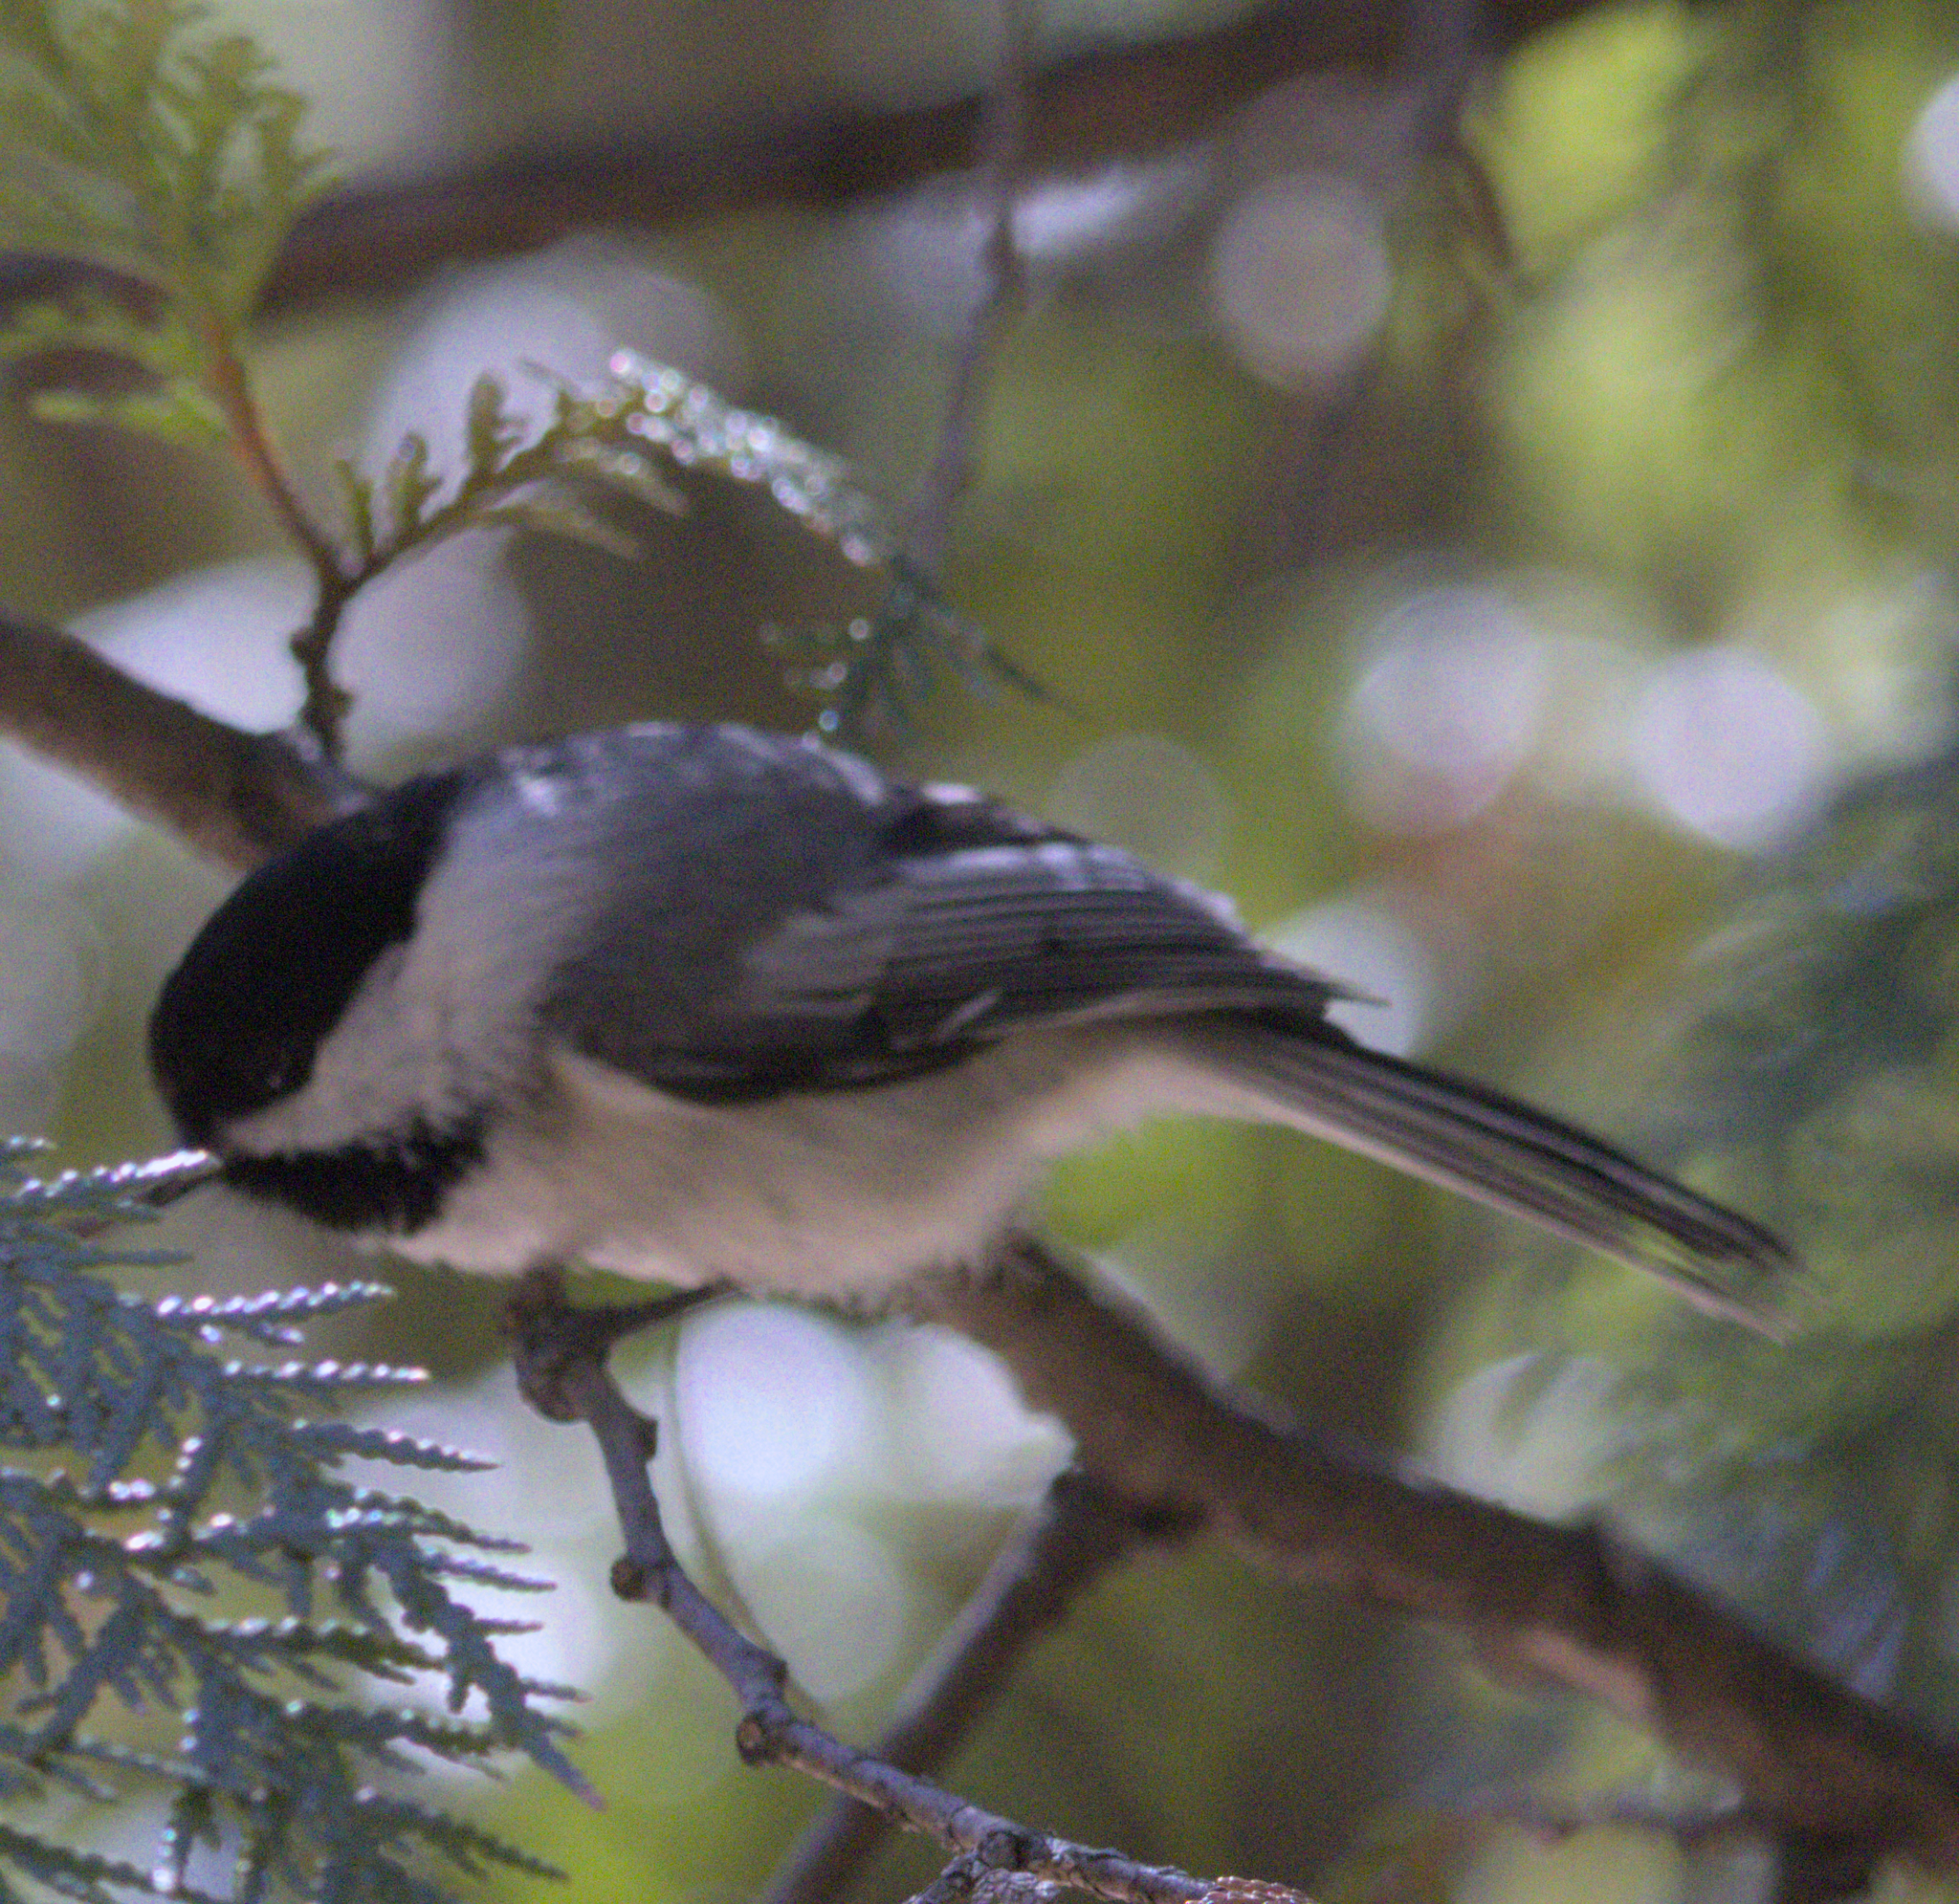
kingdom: Animalia
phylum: Chordata
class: Aves
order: Passeriformes
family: Paridae
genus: Poecile
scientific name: Poecile atricapillus
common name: Black-capped chickadee
